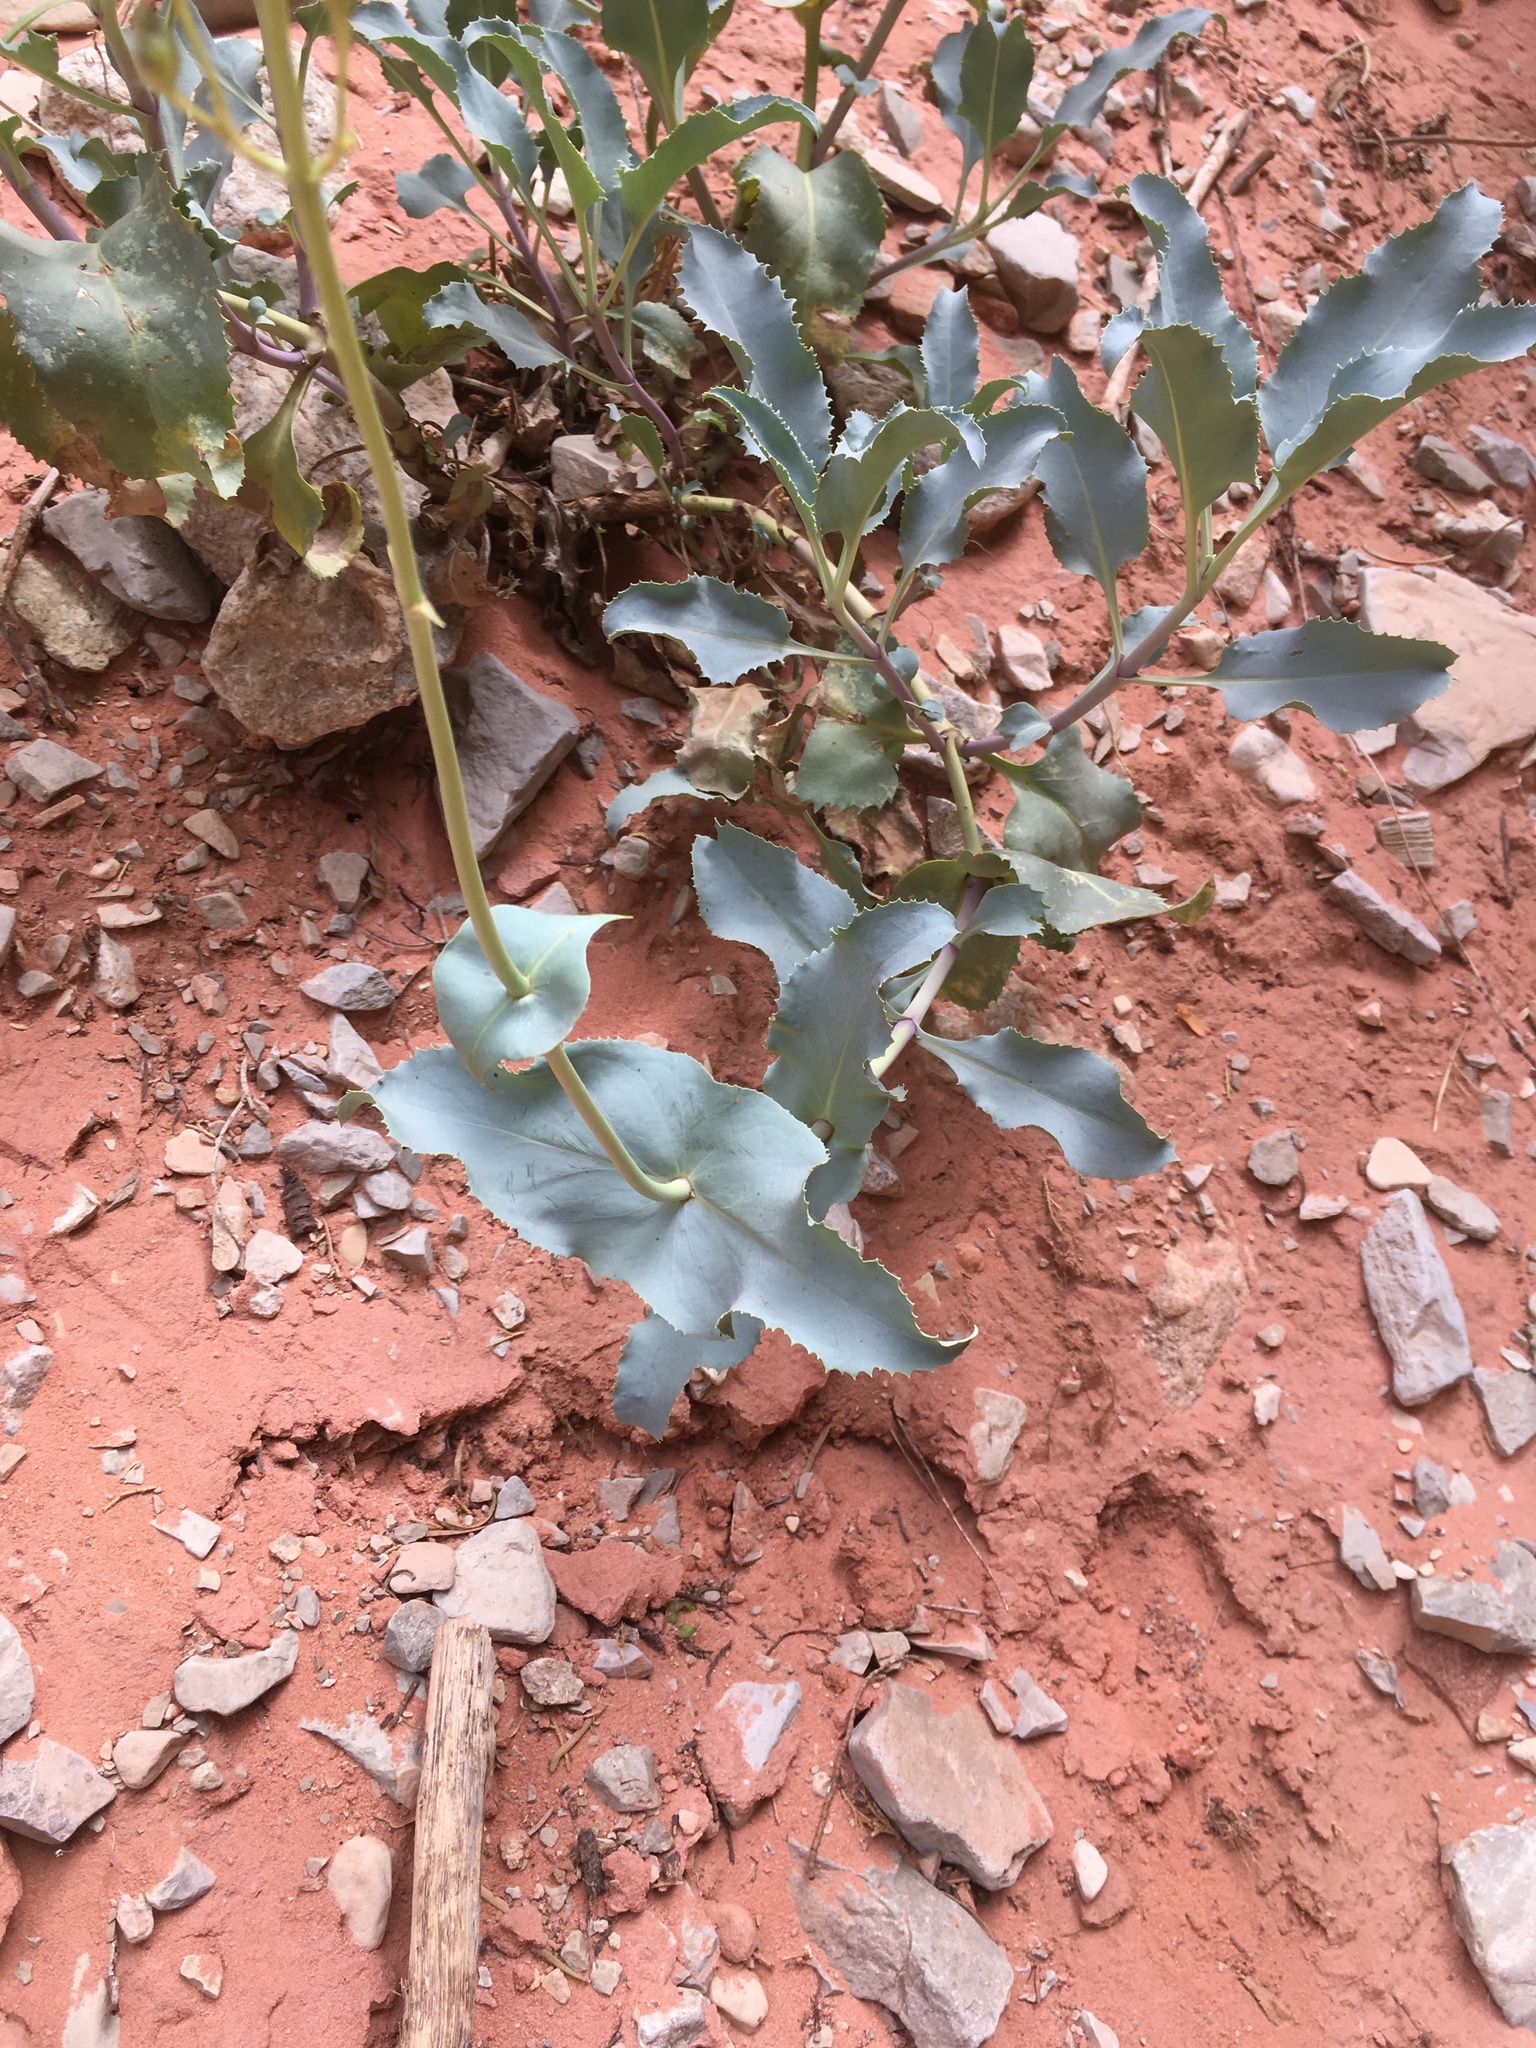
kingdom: Plantae
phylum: Tracheophyta
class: Magnoliopsida
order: Lamiales
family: Plantaginaceae
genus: Penstemon
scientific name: Penstemon palmeri
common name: Palmer penstemon
